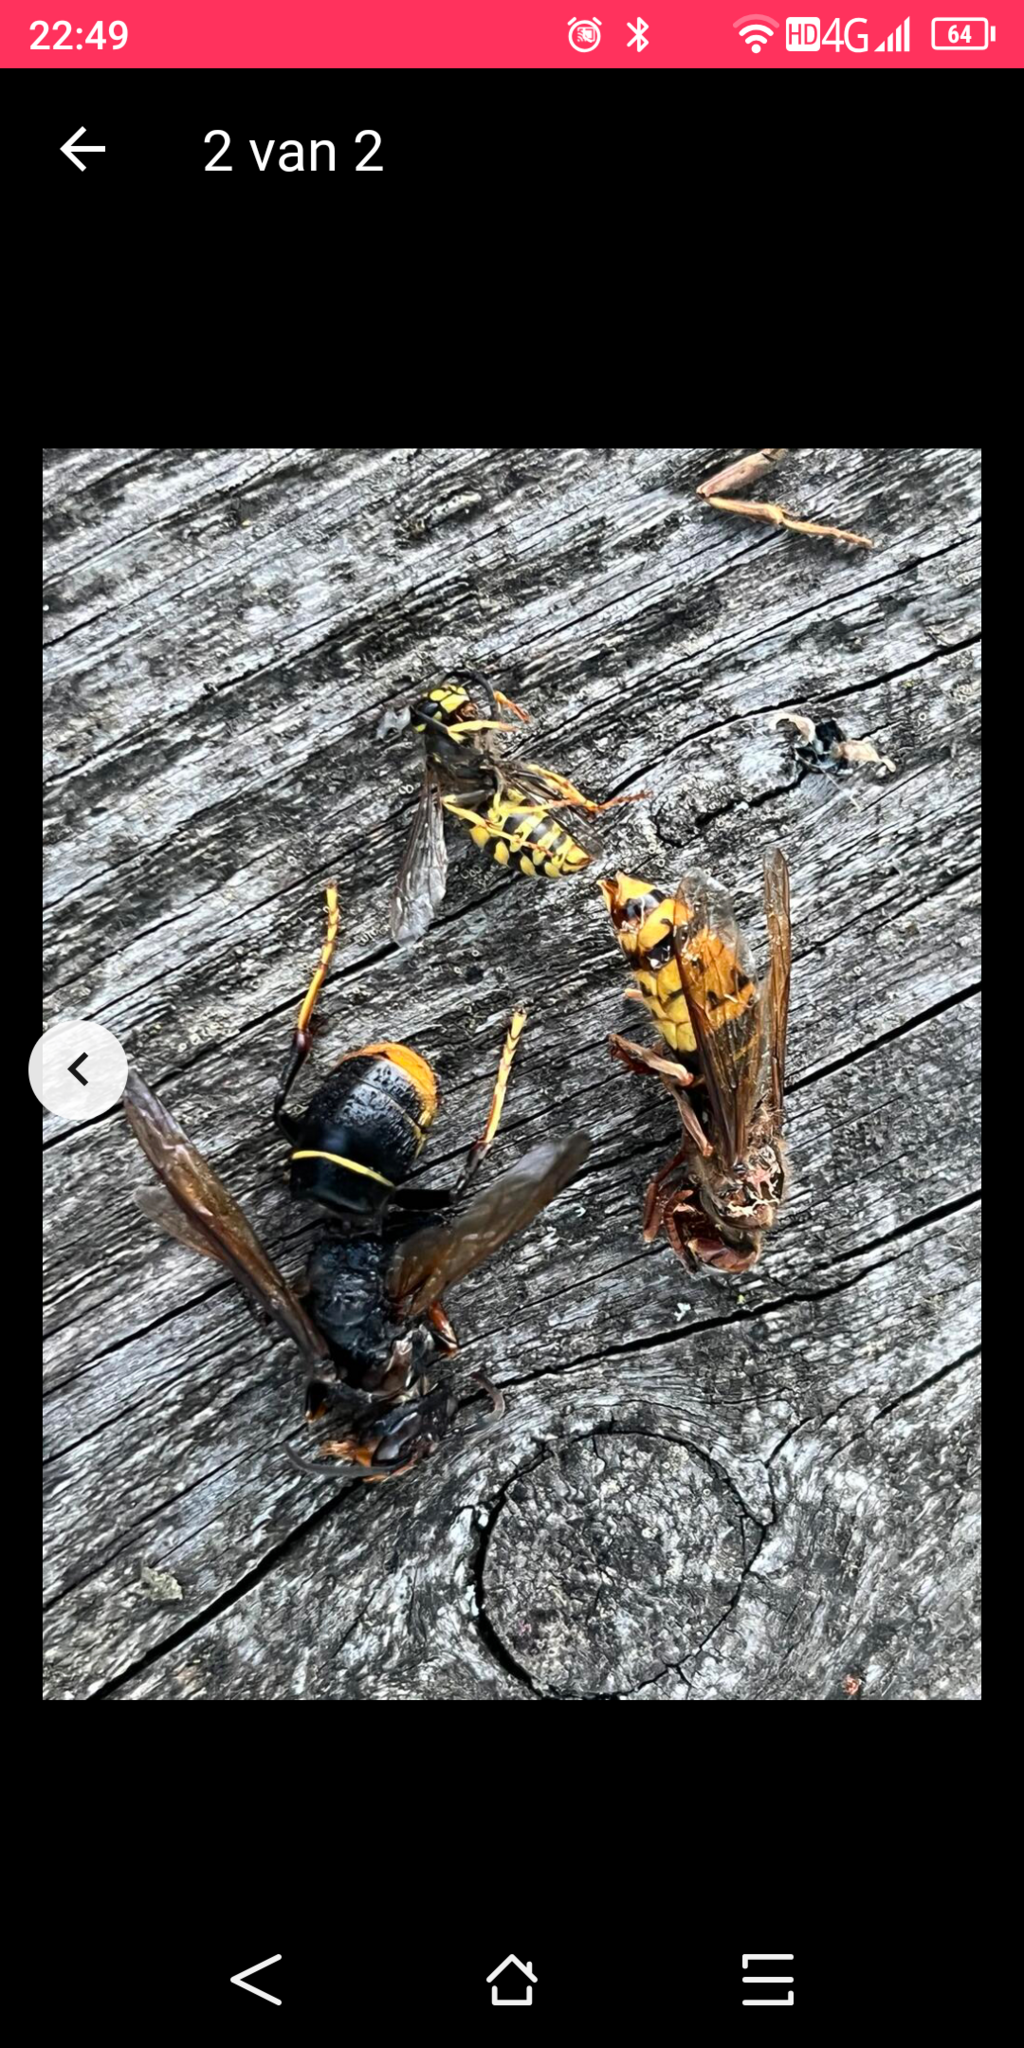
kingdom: Animalia
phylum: Arthropoda
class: Insecta
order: Hymenoptera
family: Vespidae
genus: Vespa
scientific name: Vespa velutina
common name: Asian hornet
